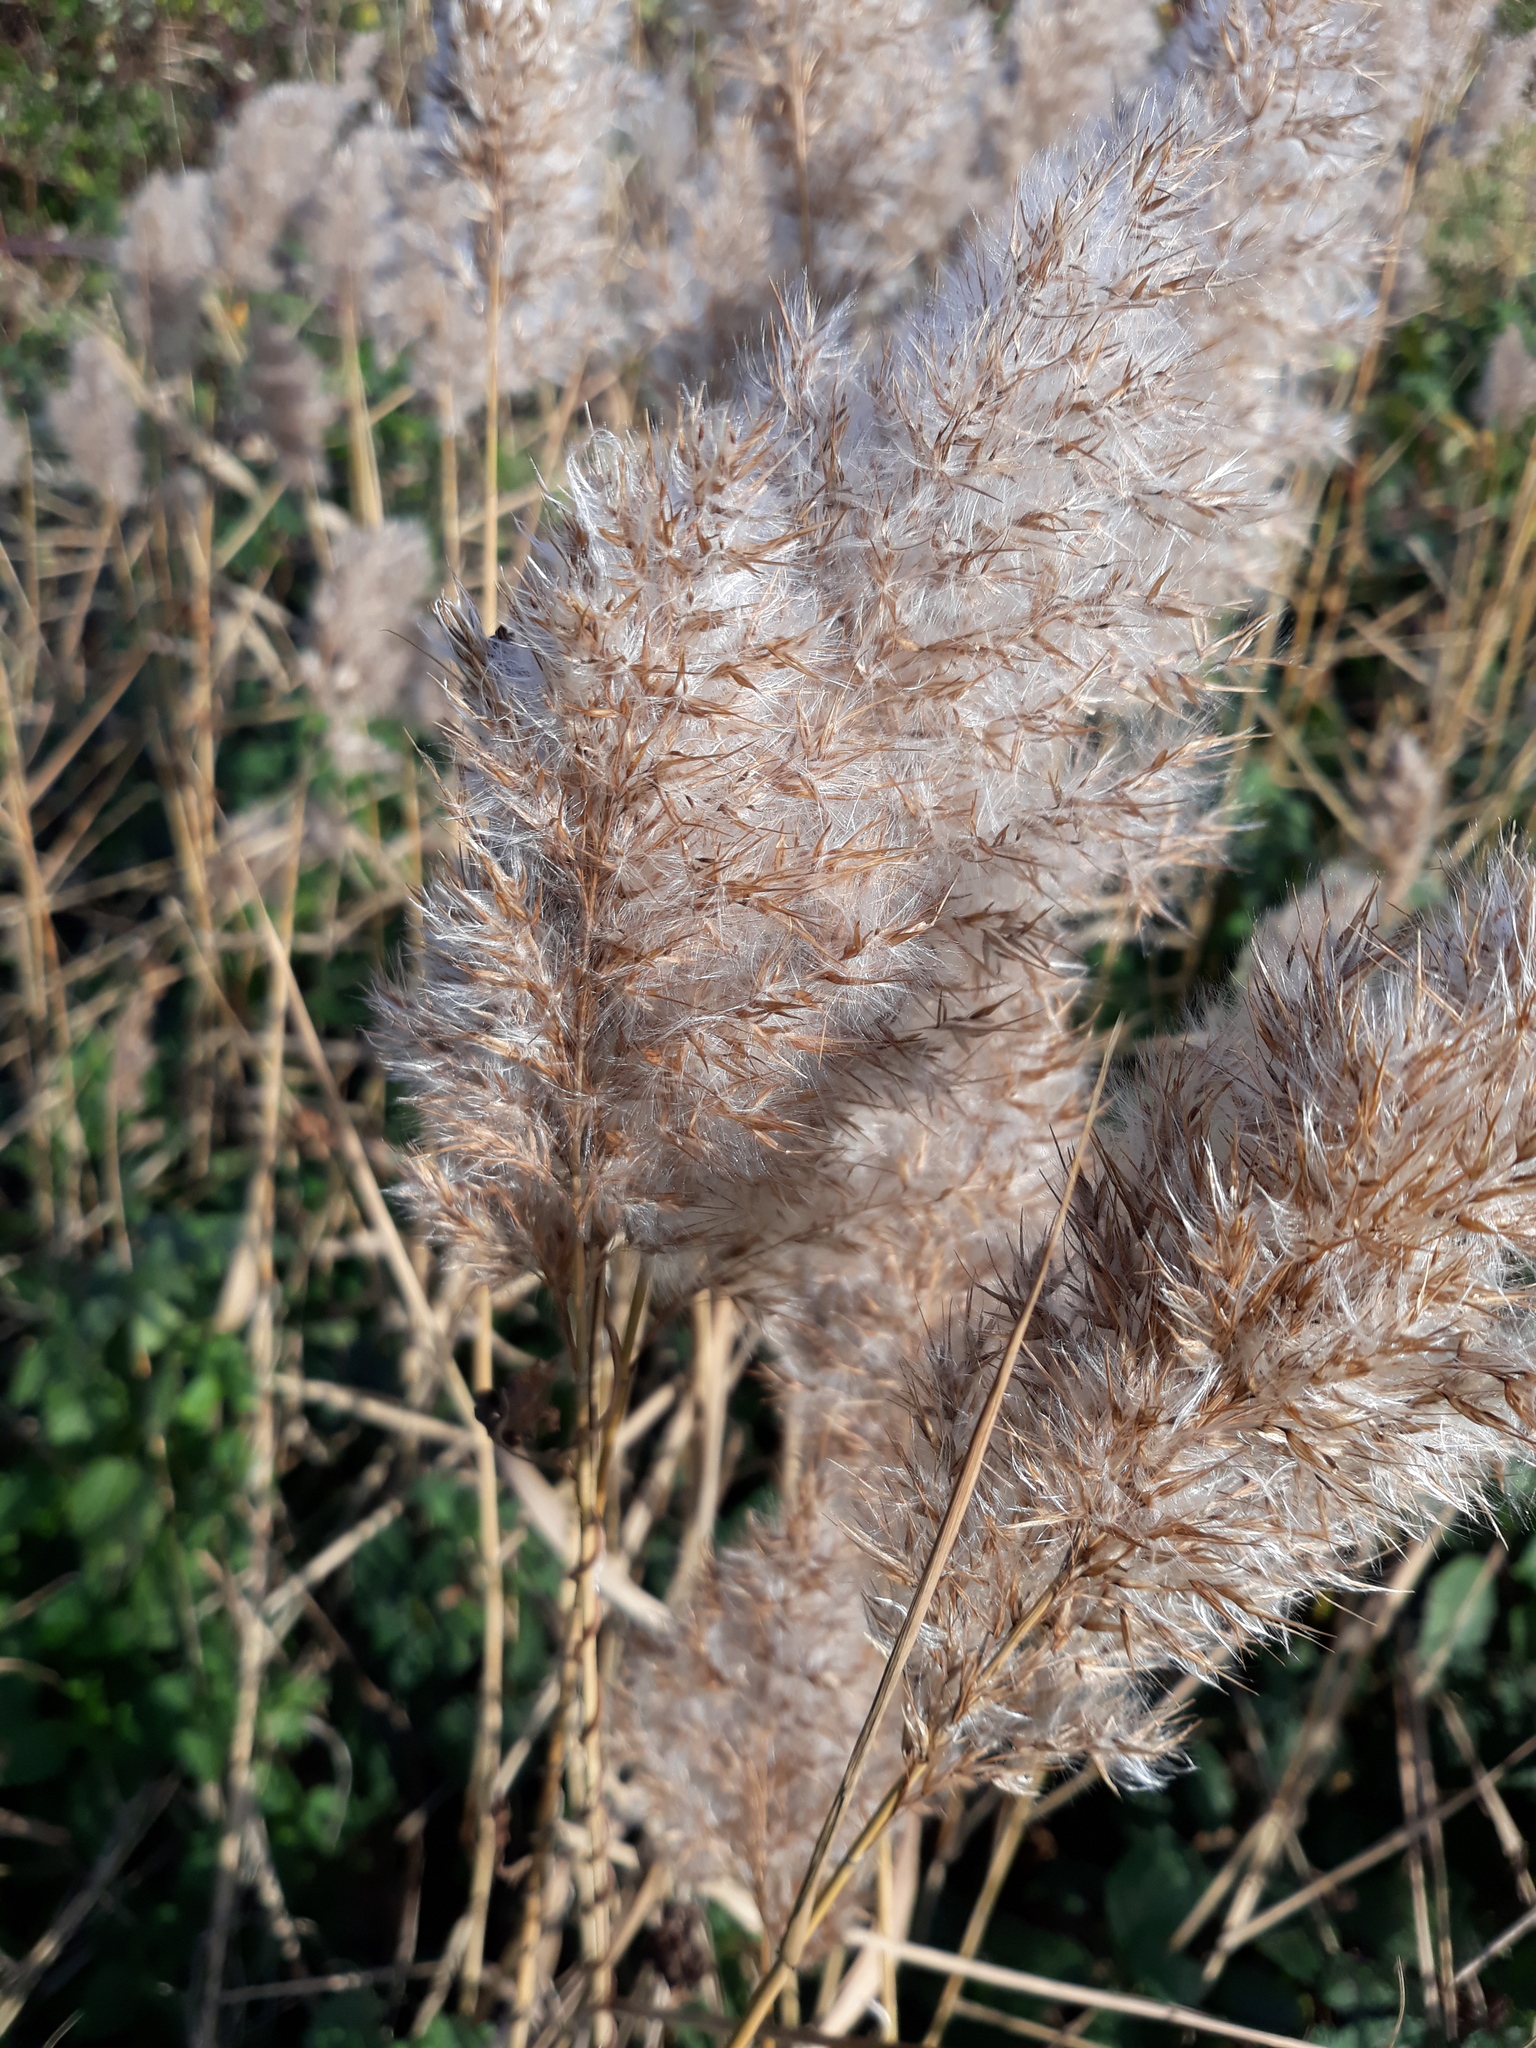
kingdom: Plantae
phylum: Tracheophyta
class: Liliopsida
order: Poales
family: Poaceae
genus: Phragmites
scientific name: Phragmites australis
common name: Common reed
